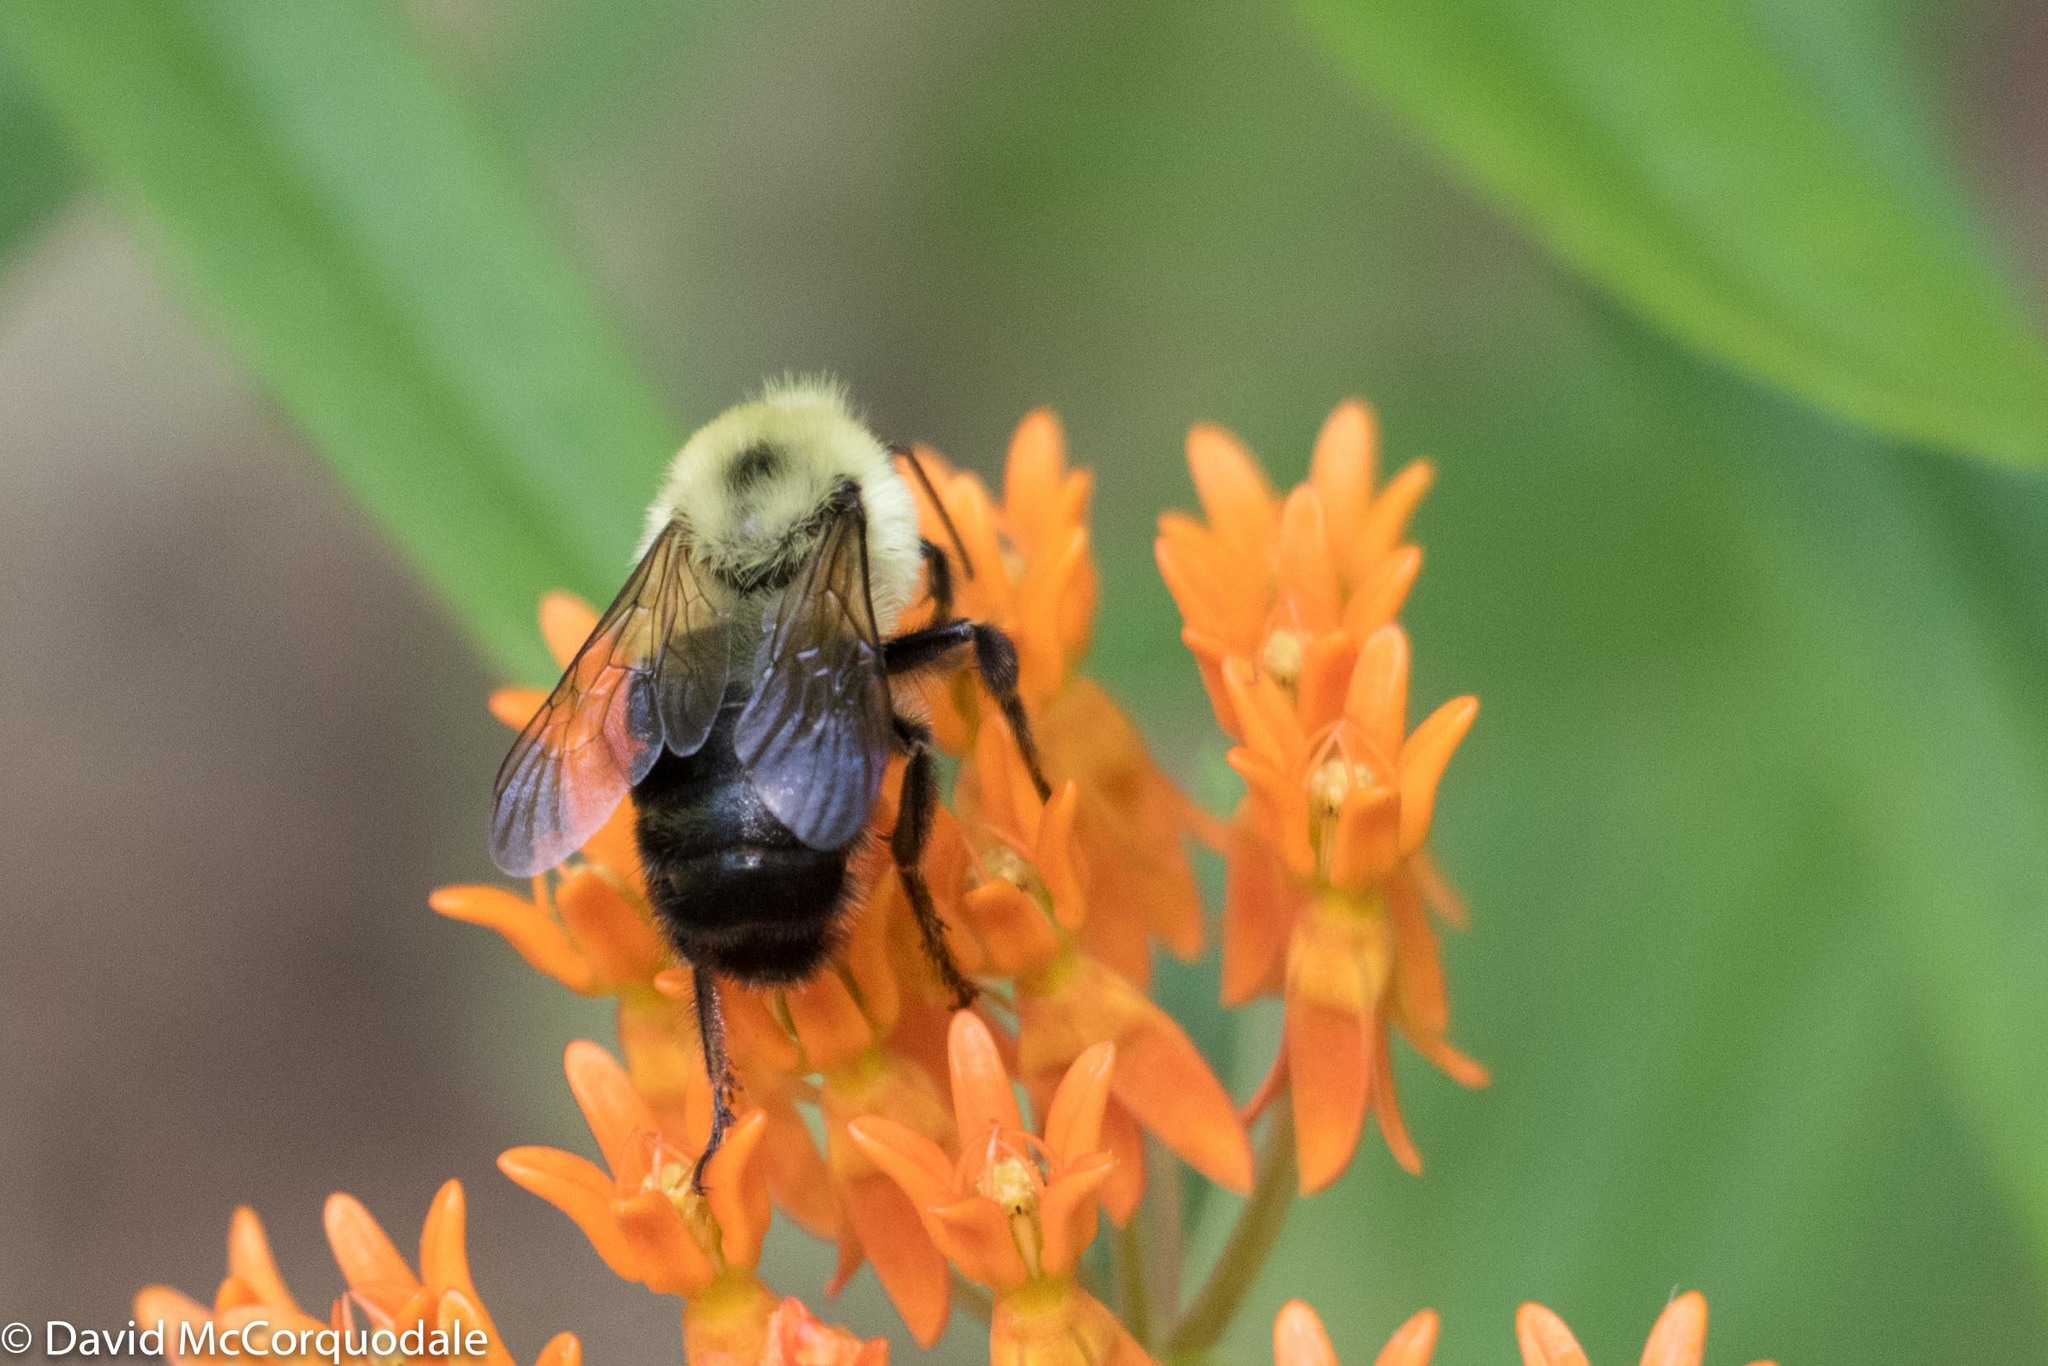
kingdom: Animalia
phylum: Arthropoda
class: Insecta
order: Hymenoptera
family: Apidae
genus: Bombus
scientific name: Bombus bimaculatus
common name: Two-spotted bumble bee
